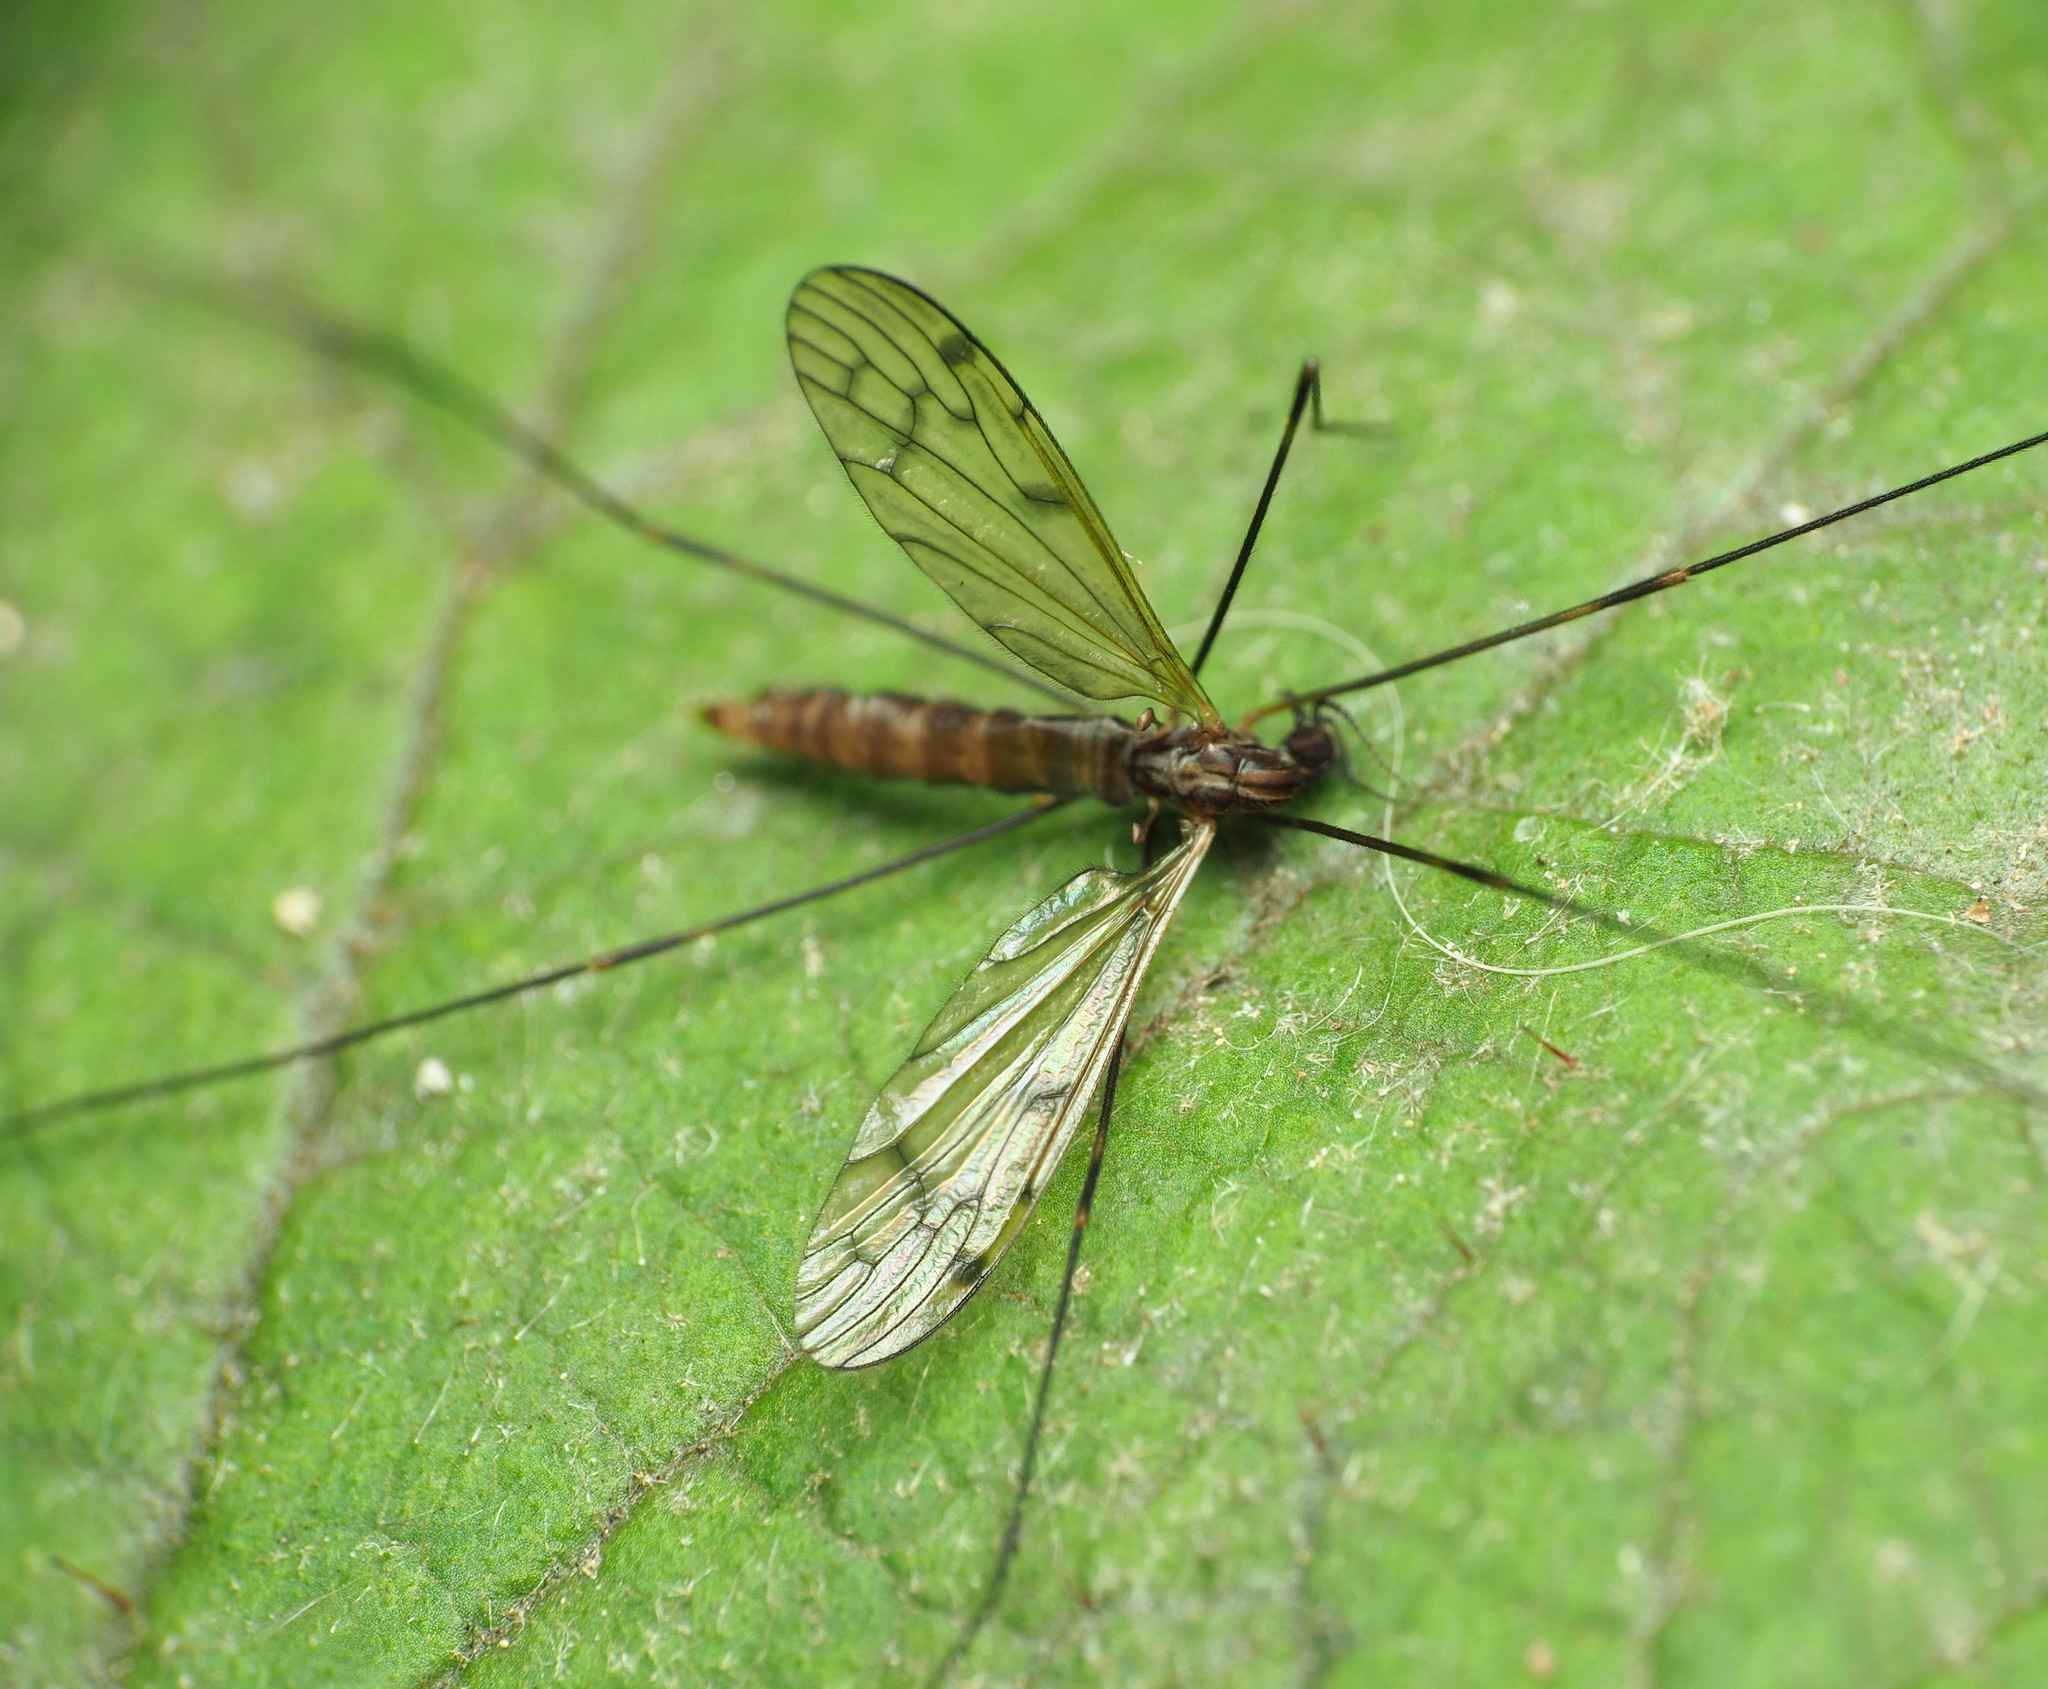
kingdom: Animalia
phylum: Arthropoda
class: Insecta
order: Diptera
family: Limoniidae
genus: Metalimnobia
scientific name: Metalimnobia novaeangliae
